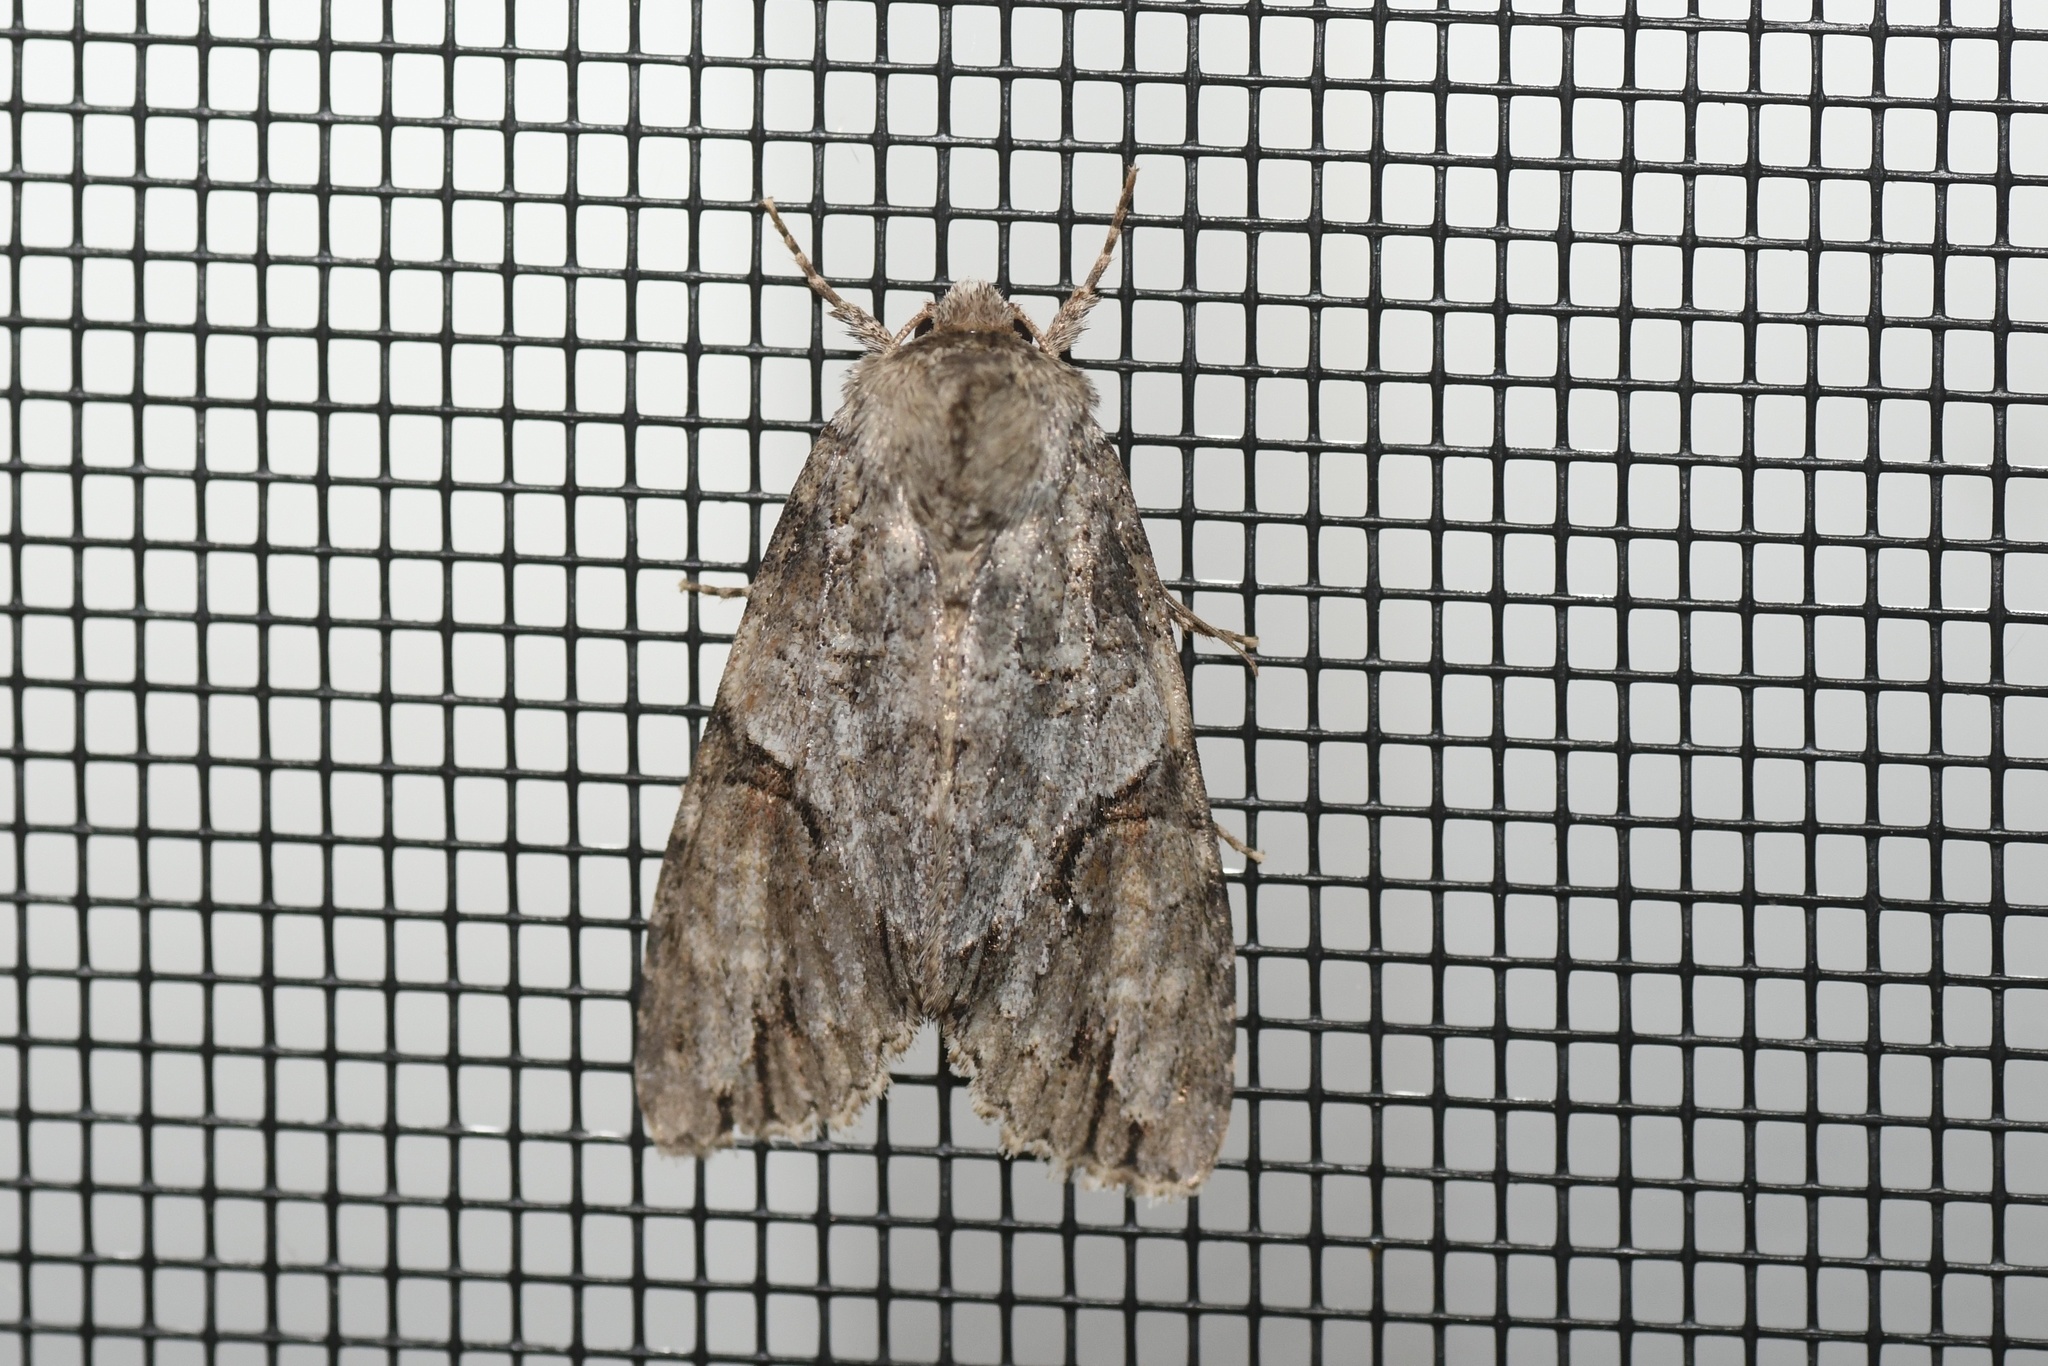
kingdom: Animalia
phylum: Arthropoda
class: Insecta
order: Lepidoptera
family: Noctuidae
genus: Achatia
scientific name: Achatia latex
